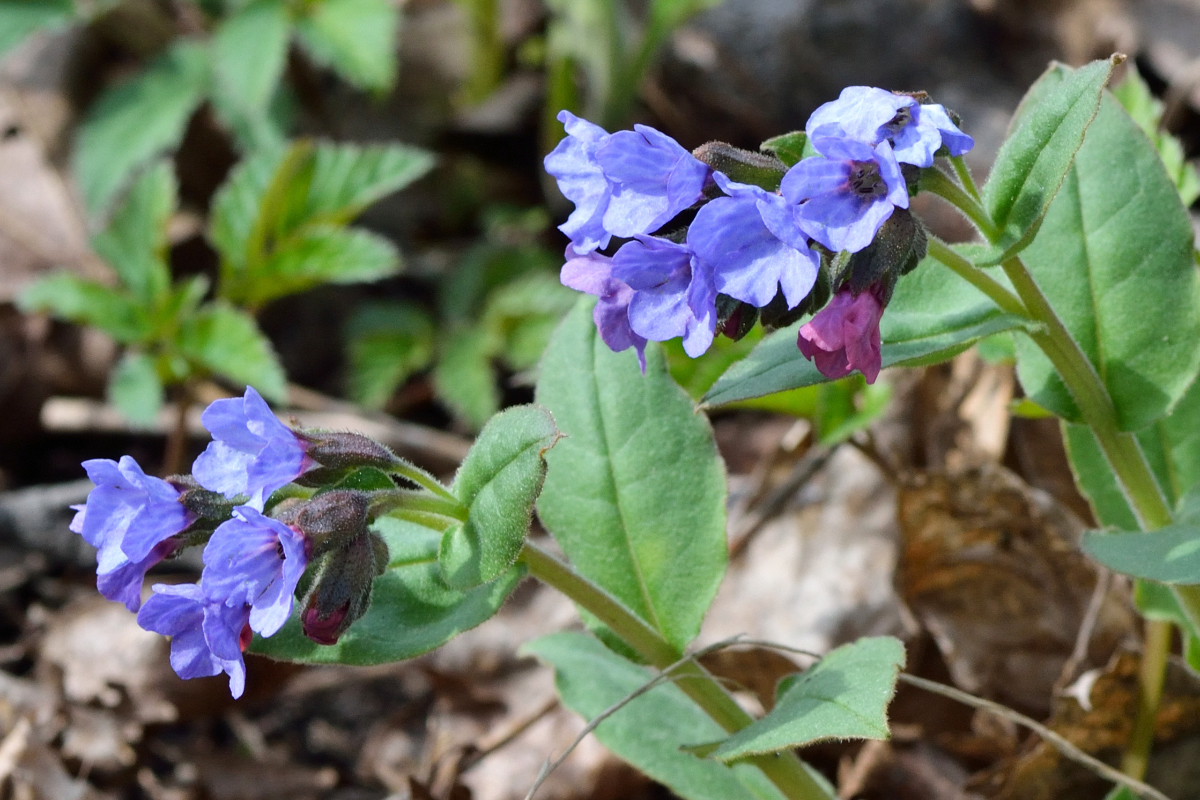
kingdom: Plantae
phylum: Tracheophyta
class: Magnoliopsida
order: Boraginales
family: Boraginaceae
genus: Pulmonaria
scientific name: Pulmonaria obscura
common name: Suffolk lungwort
